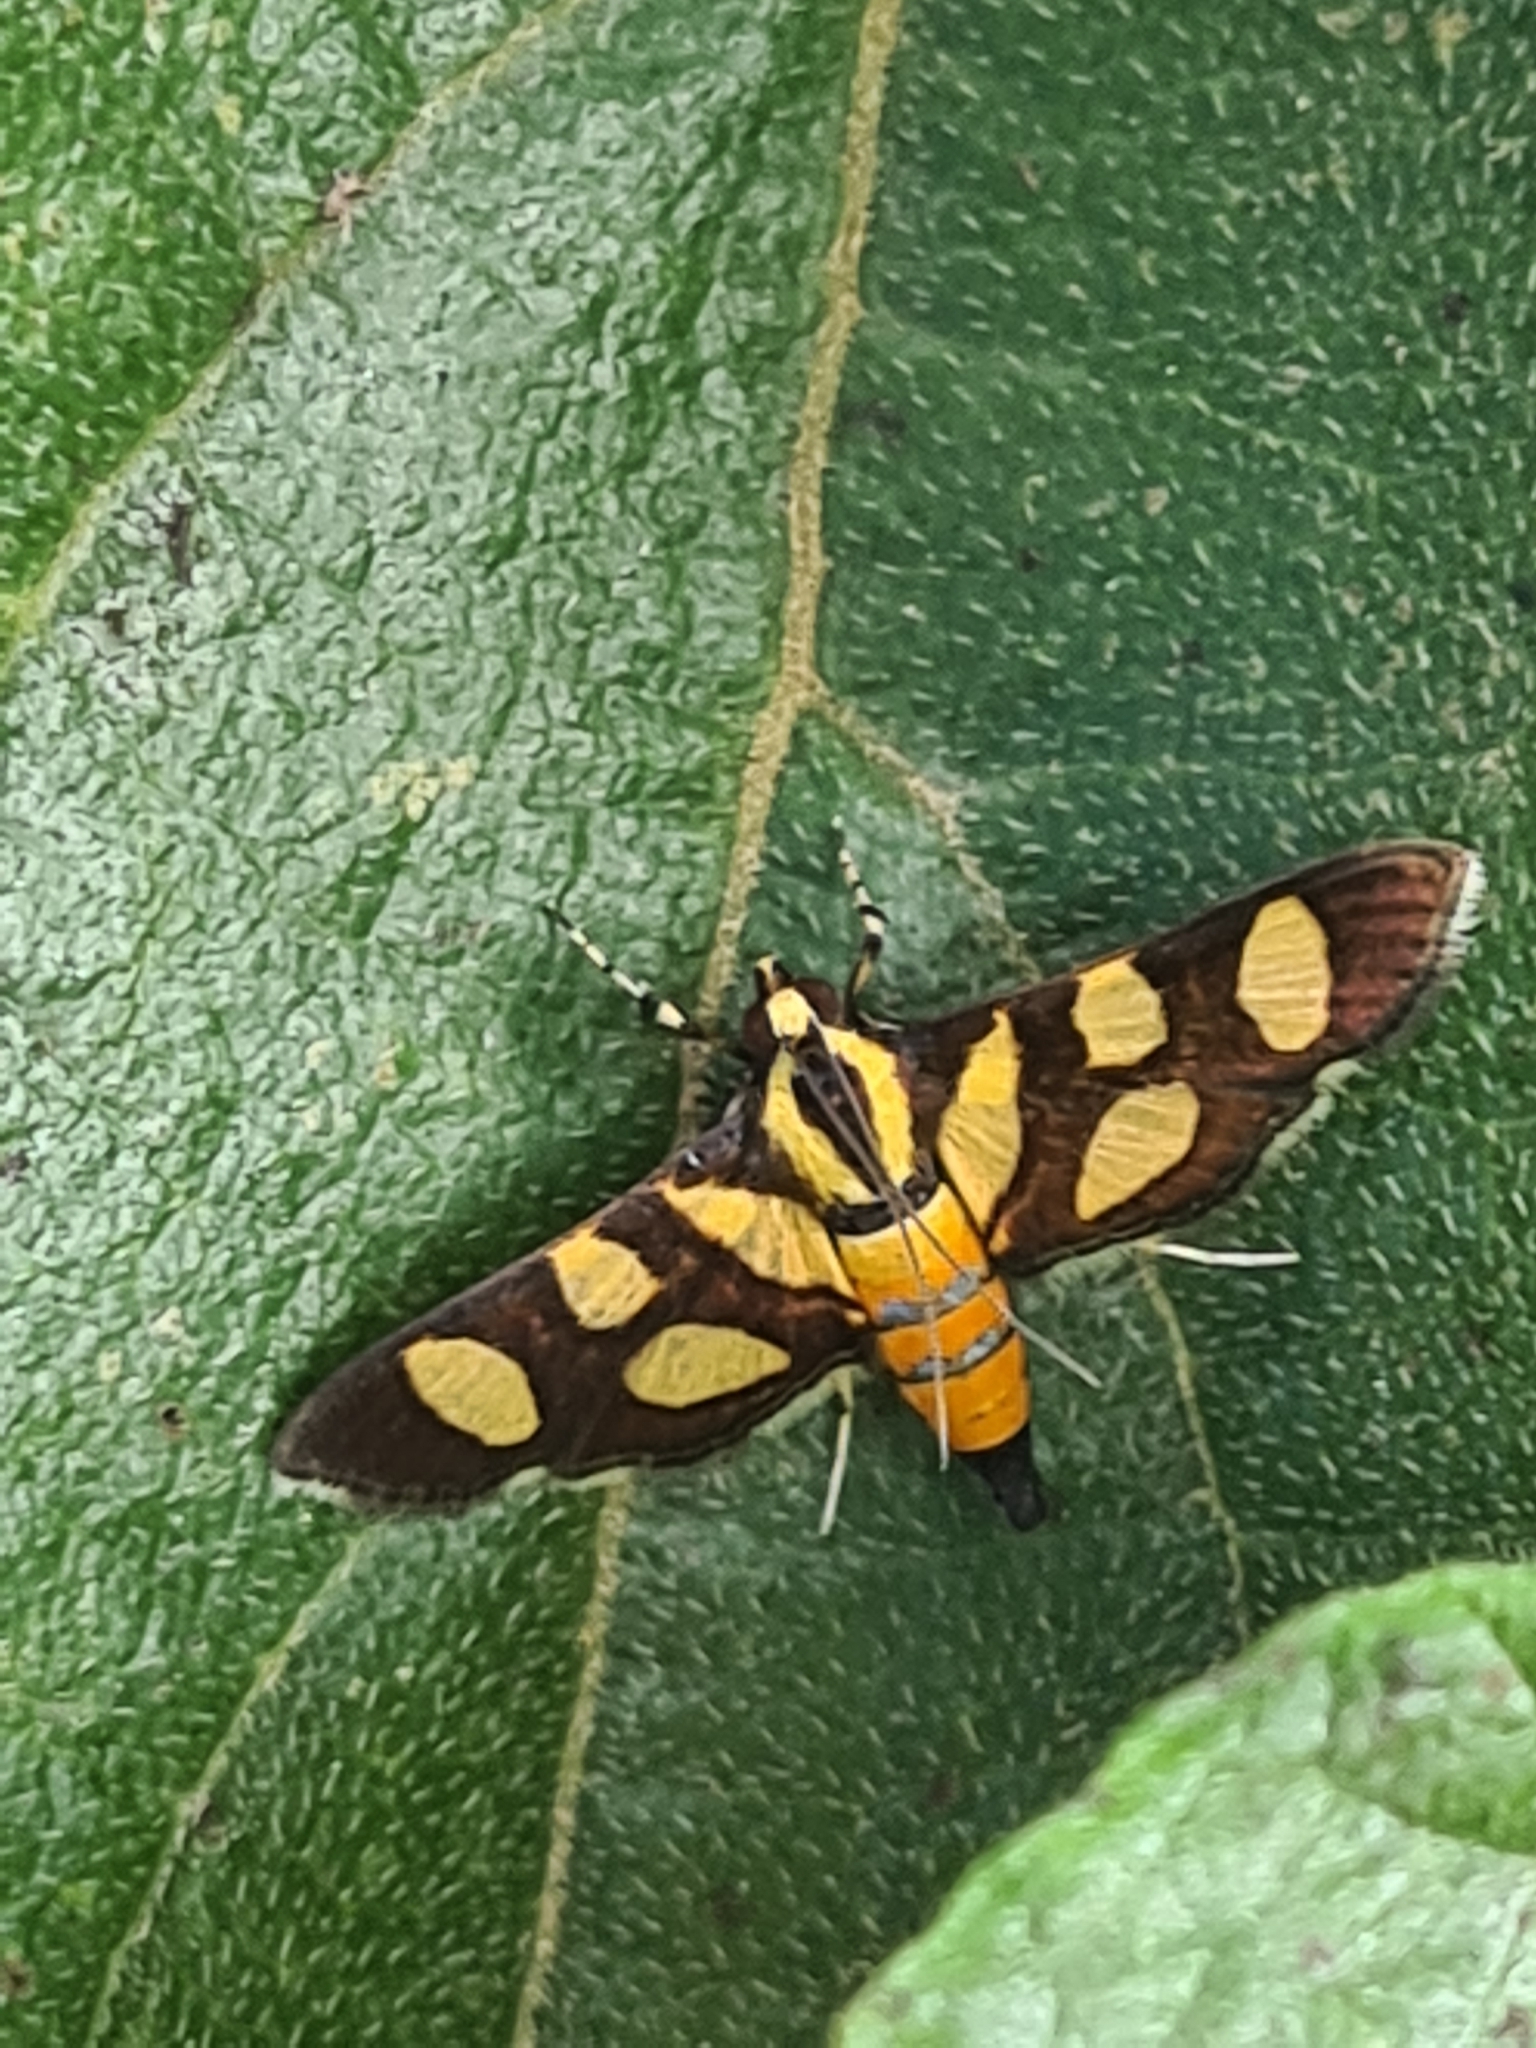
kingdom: Animalia
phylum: Arthropoda
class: Insecta
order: Lepidoptera
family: Crambidae
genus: Syngamia
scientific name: Syngamia florella
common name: Orange-spotted flower moth
